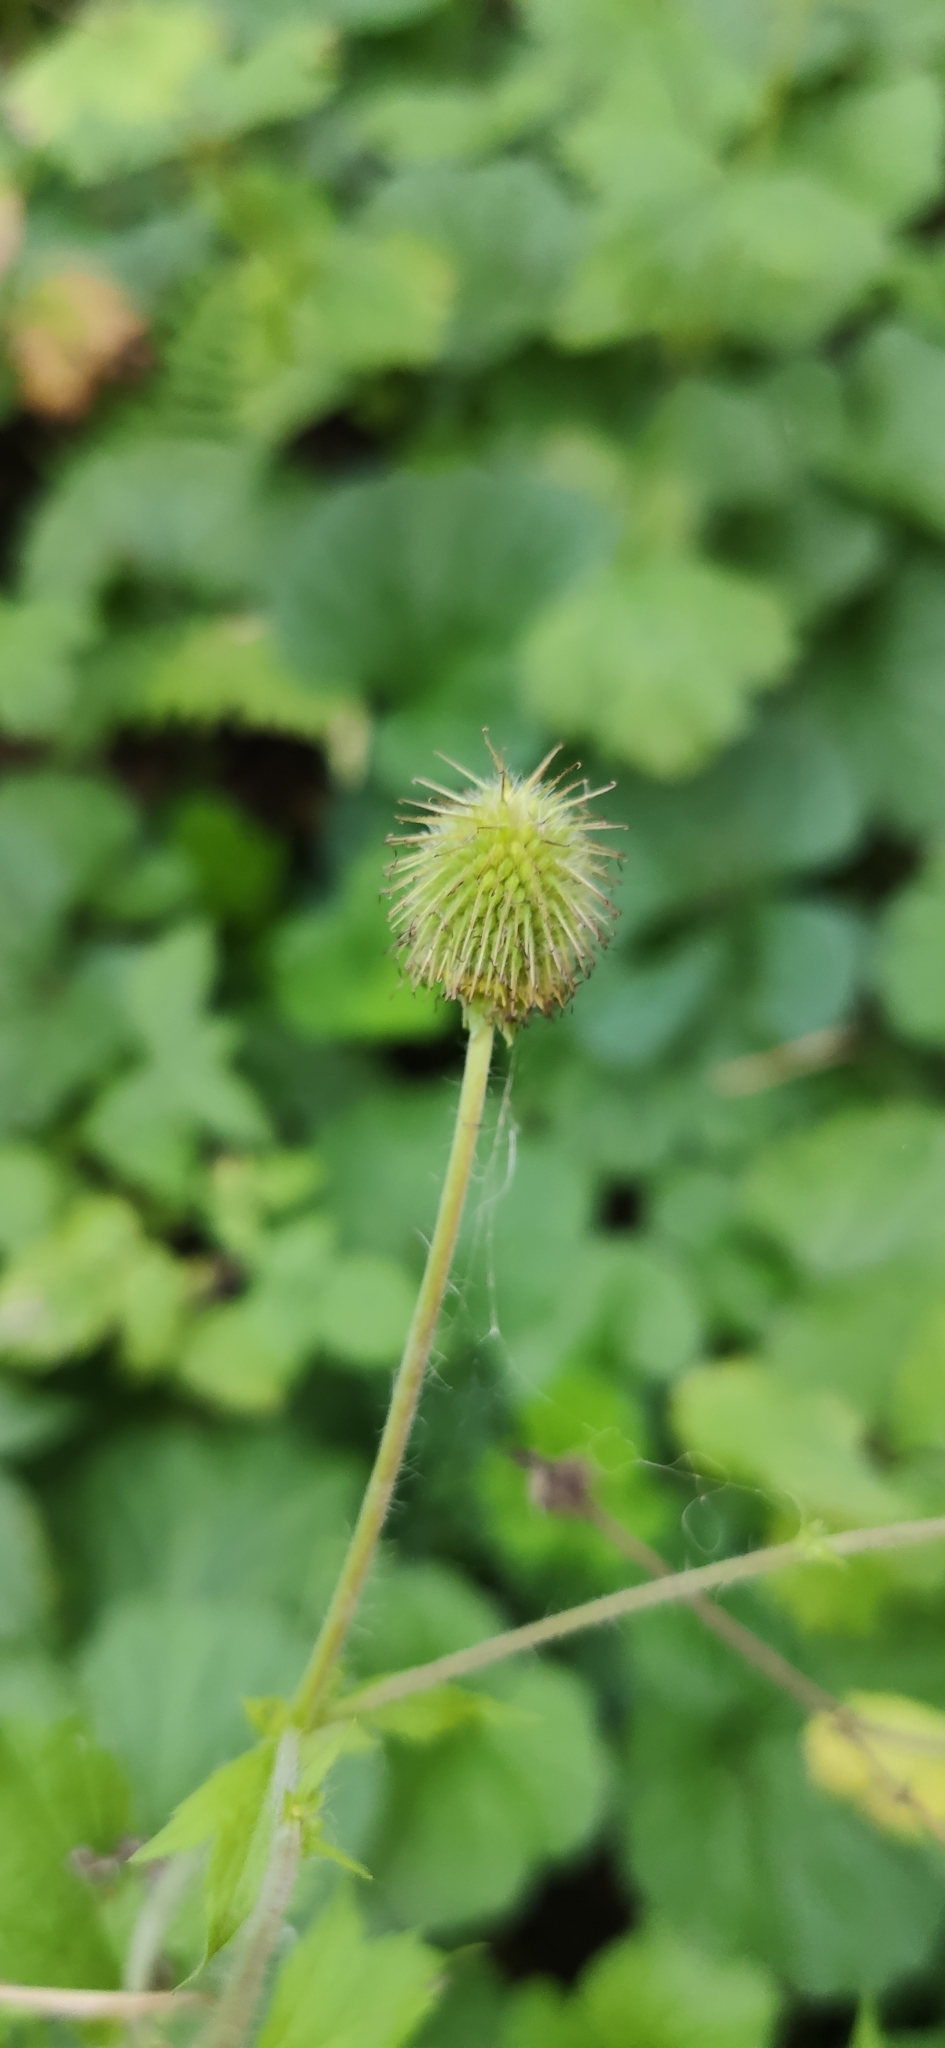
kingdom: Plantae
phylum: Tracheophyta
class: Magnoliopsida
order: Rosales
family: Rosaceae
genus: Geum
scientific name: Geum macrophyllum
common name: Large-leaved avens
